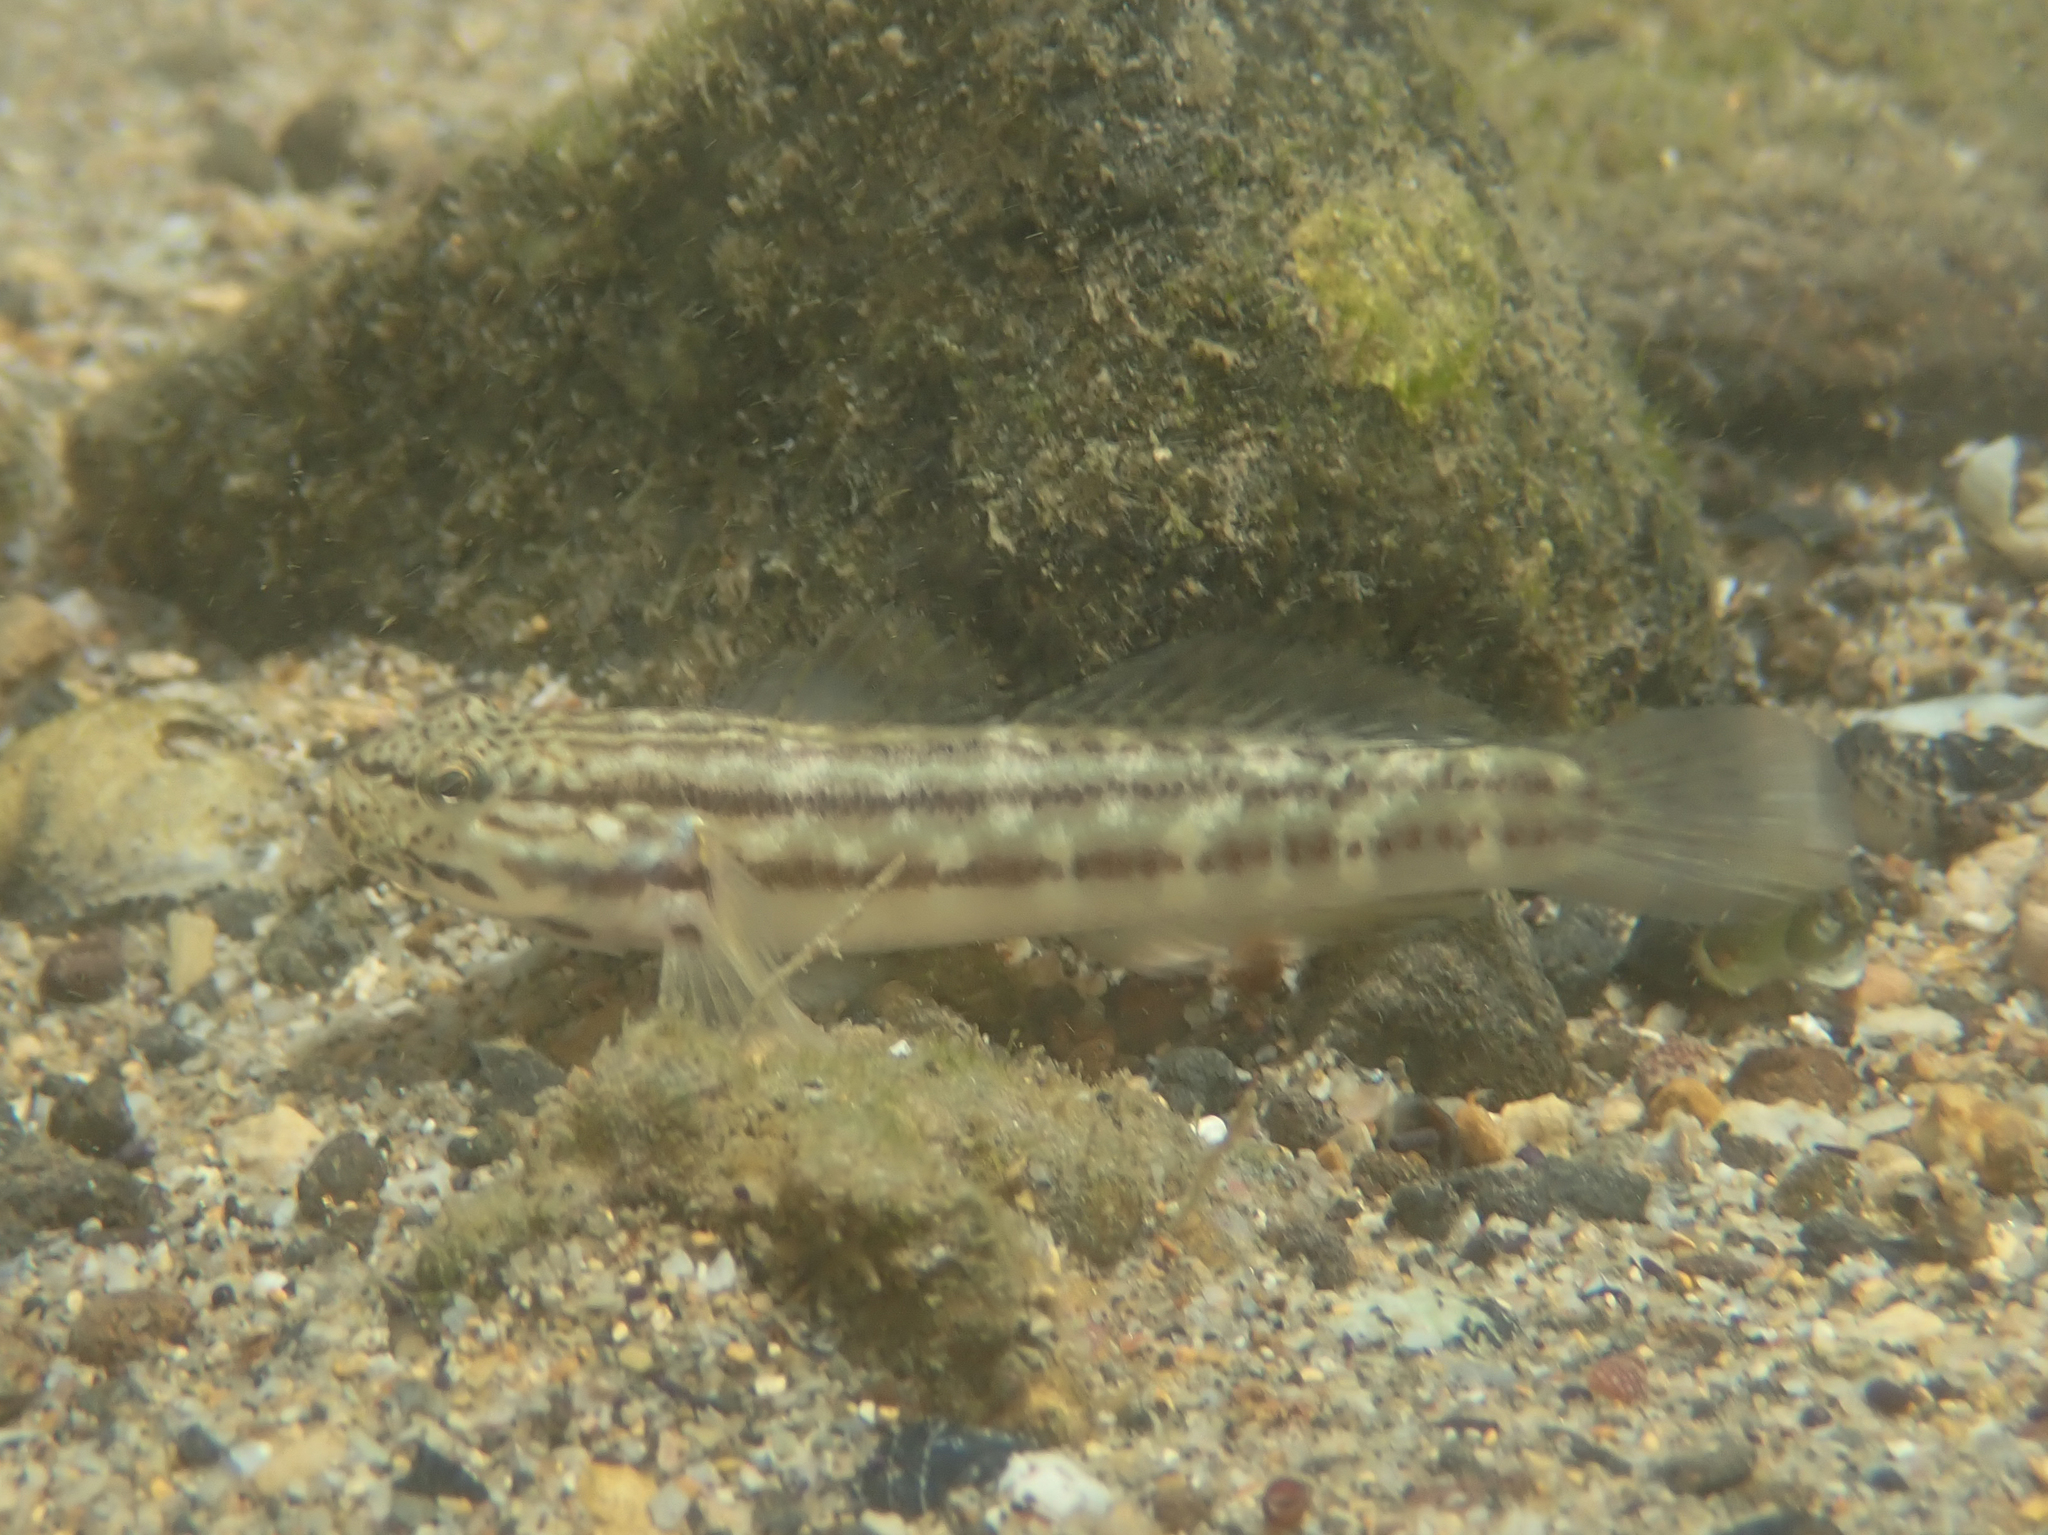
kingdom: Animalia
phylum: Chordata
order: Perciformes
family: Gobiidae
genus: Bathygobius
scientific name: Bathygobius casamancus
